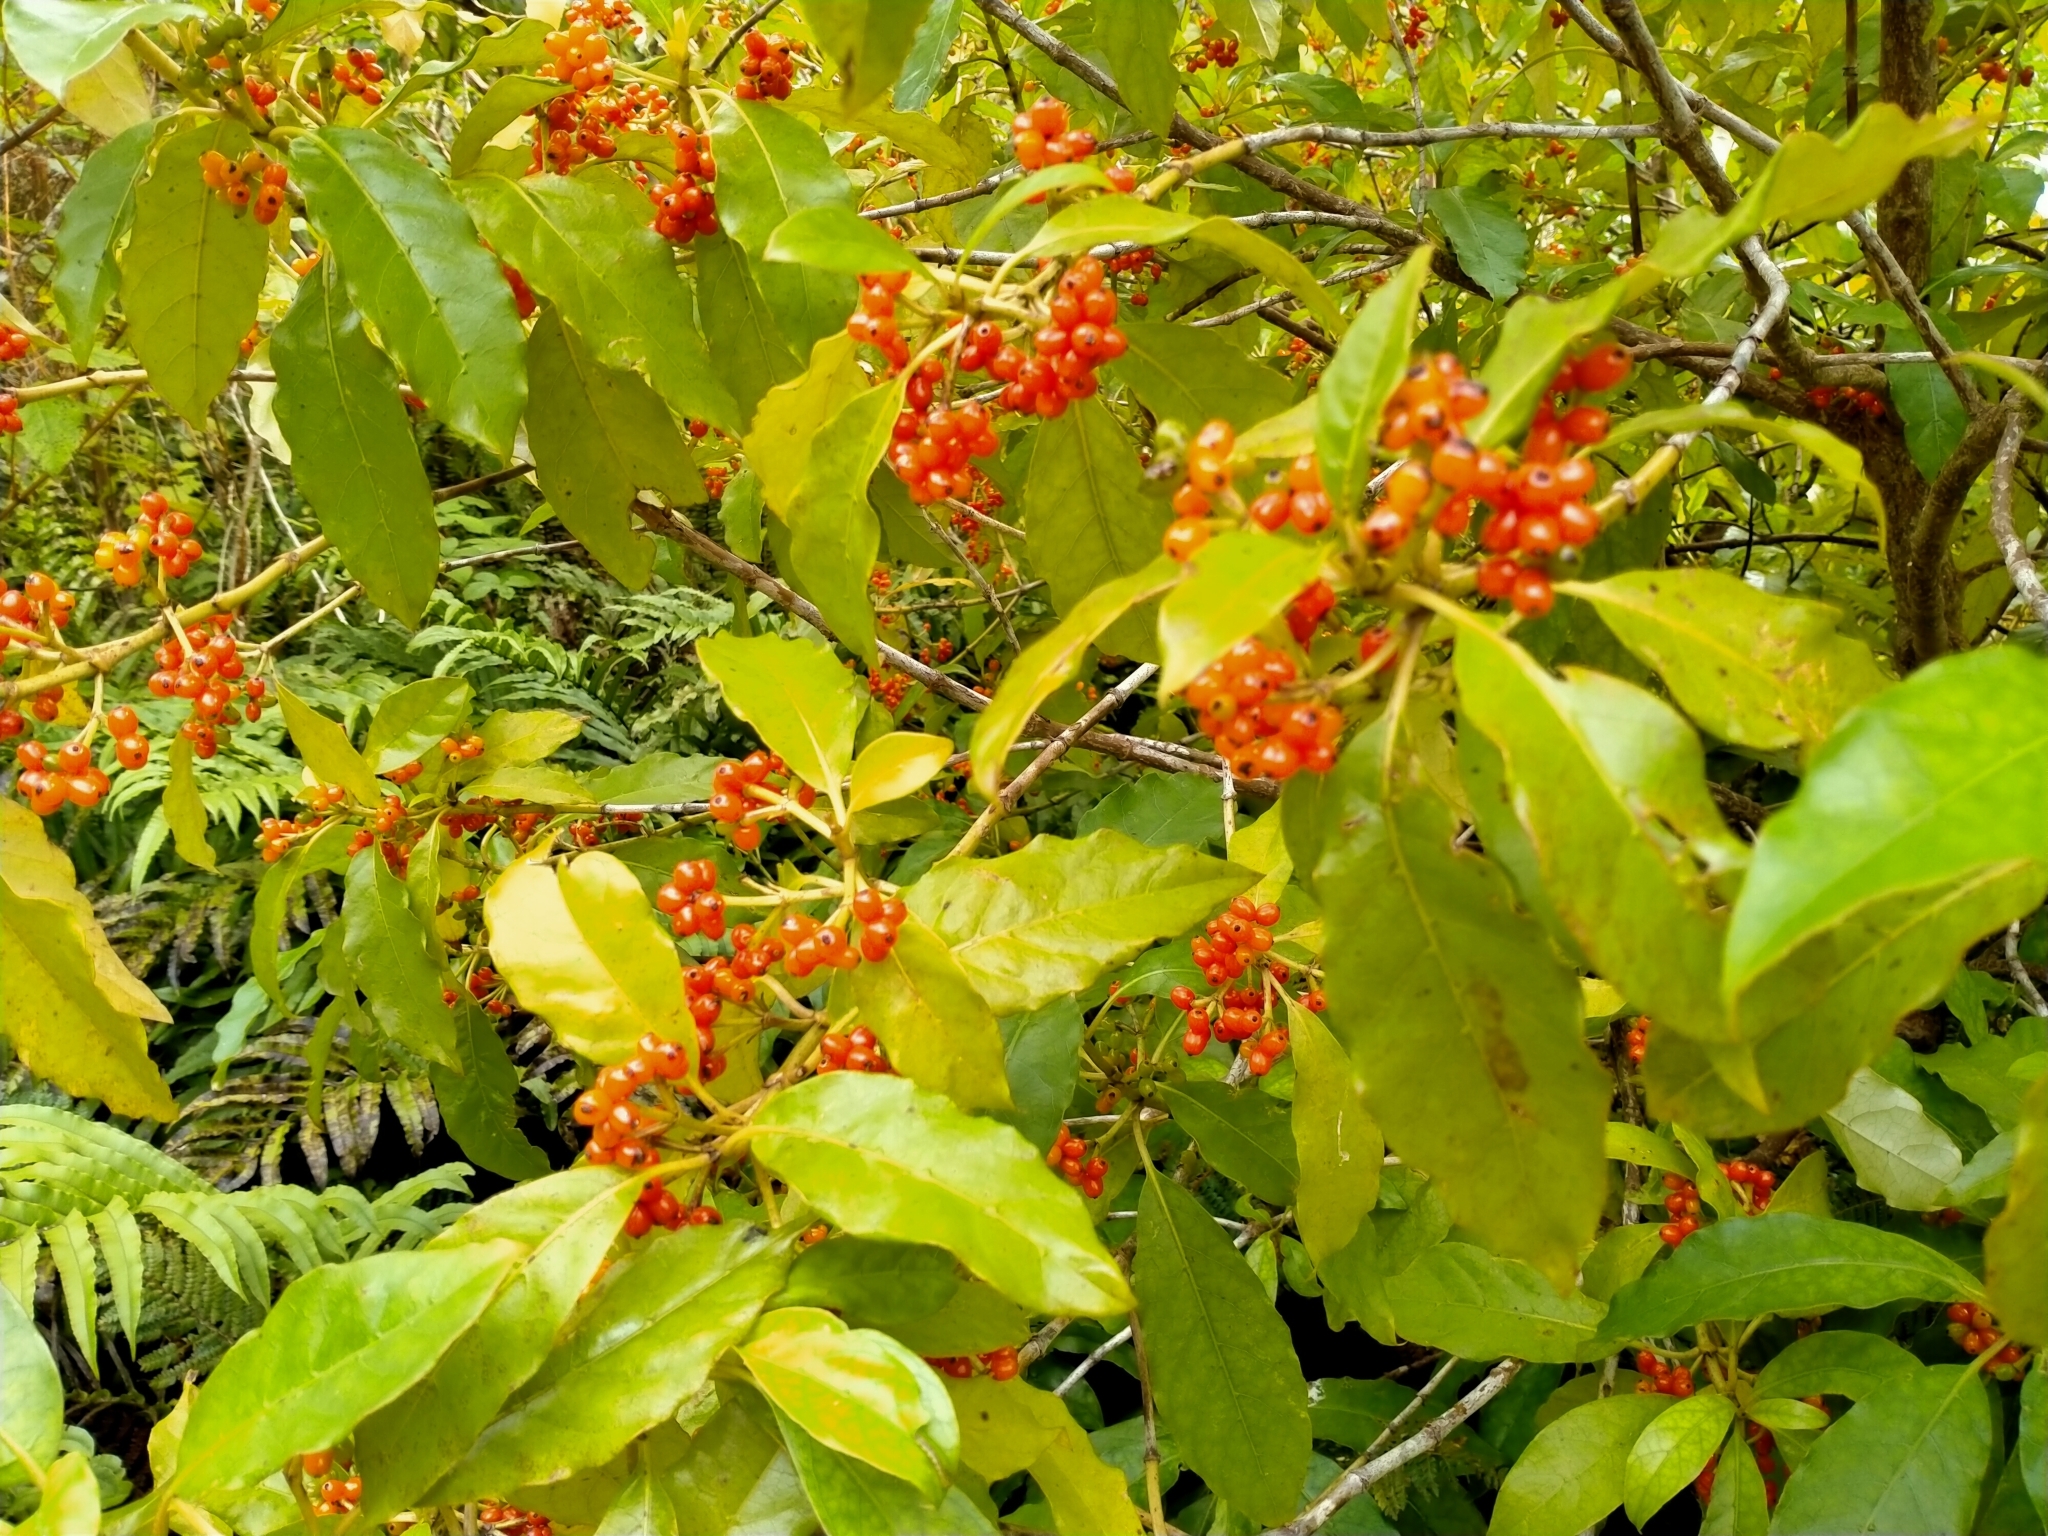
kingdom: Plantae
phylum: Tracheophyta
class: Magnoliopsida
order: Gentianales
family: Rubiaceae
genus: Coprosma
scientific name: Coprosma autumnalis
